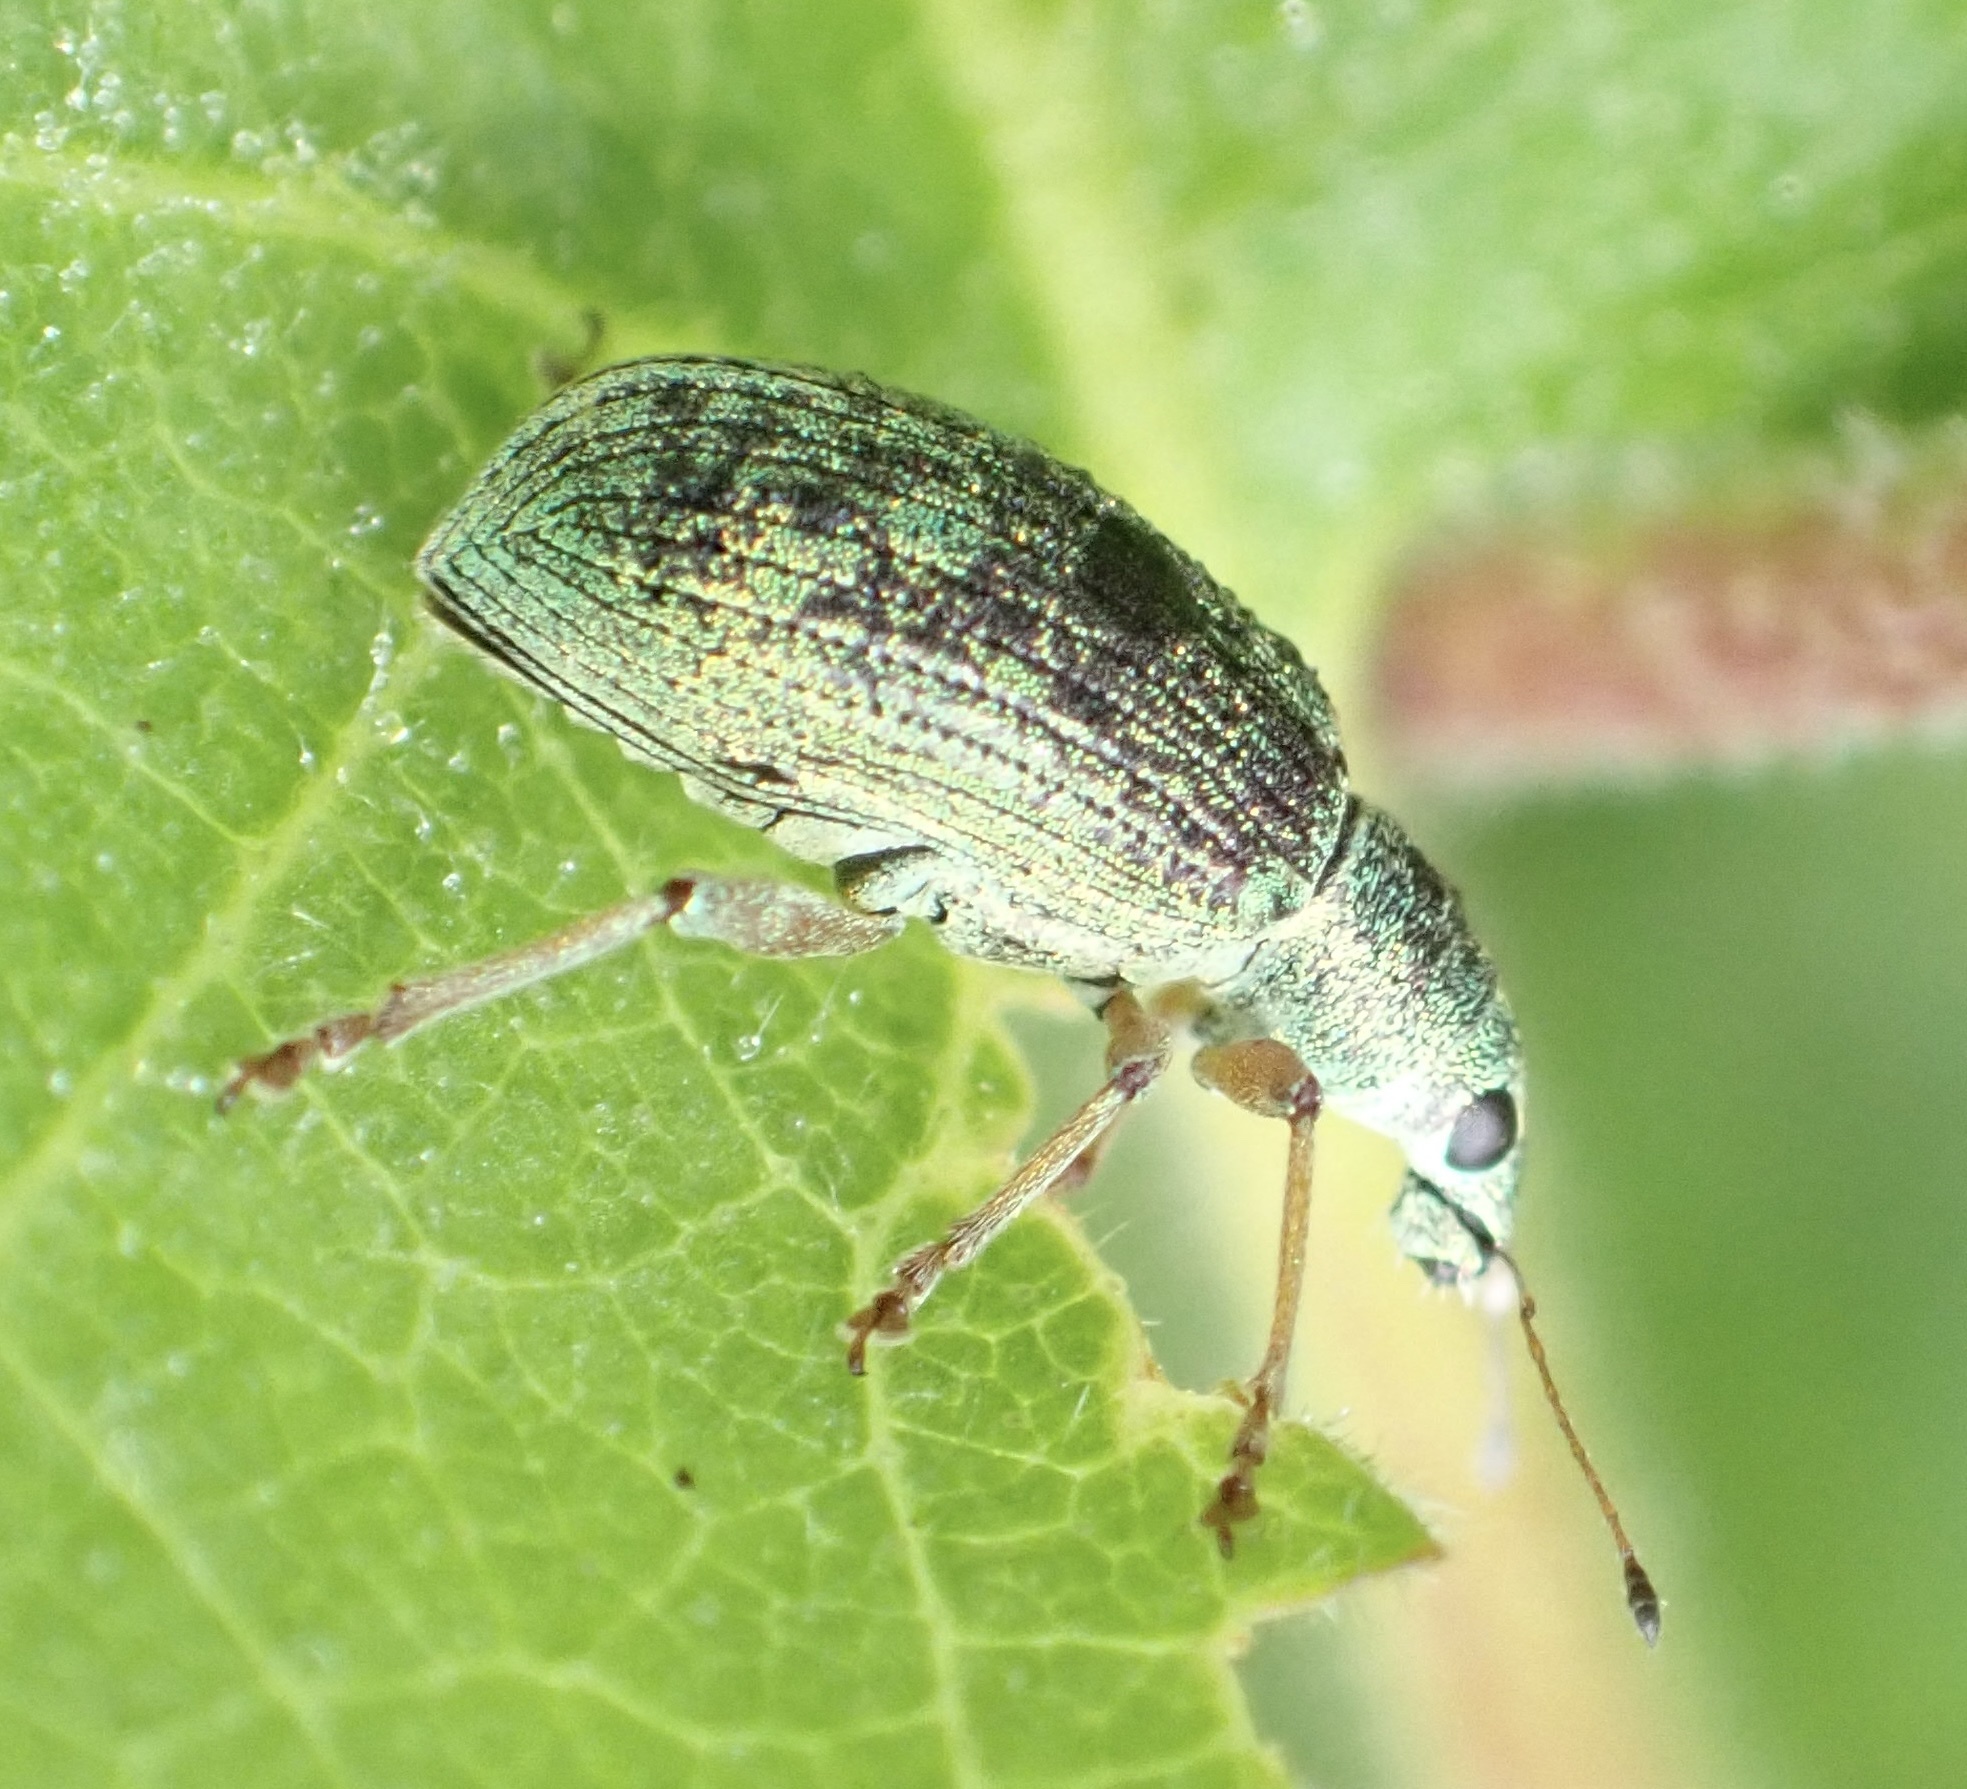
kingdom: Animalia
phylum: Arthropoda
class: Insecta
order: Coleoptera
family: Curculionidae
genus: Polydrusus
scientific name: Polydrusus formosus
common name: Weevil
